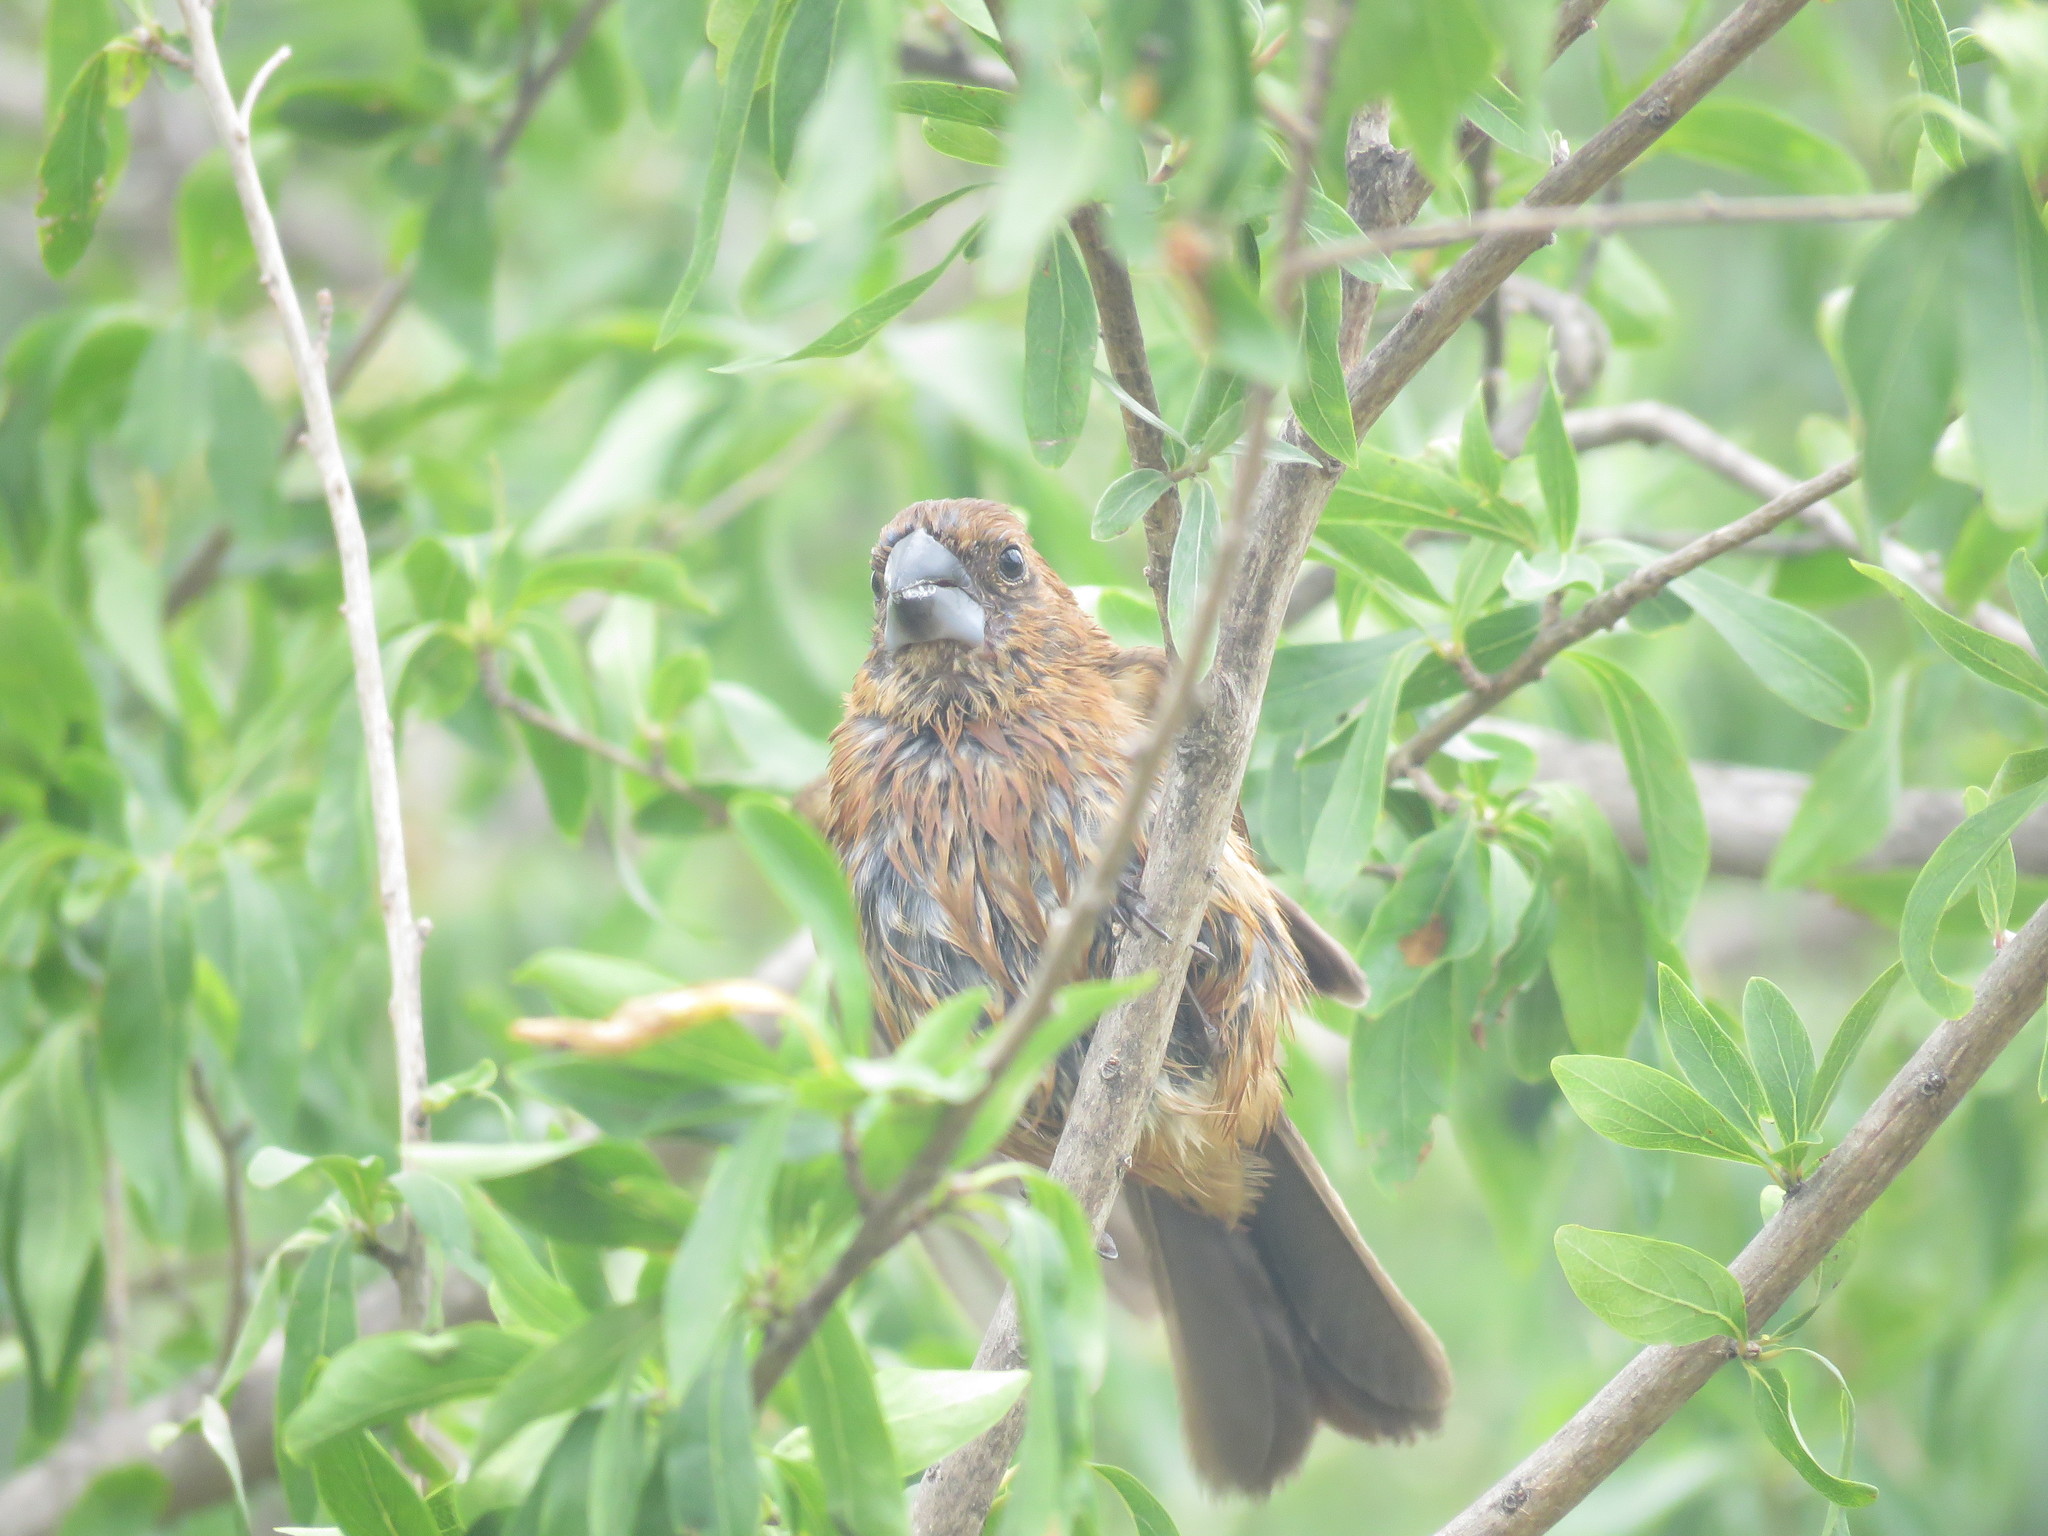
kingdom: Animalia
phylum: Chordata
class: Aves
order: Passeriformes
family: Cardinalidae
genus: Cyanoloxia
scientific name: Cyanoloxia brissonii
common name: Ultramarine grosbeak
